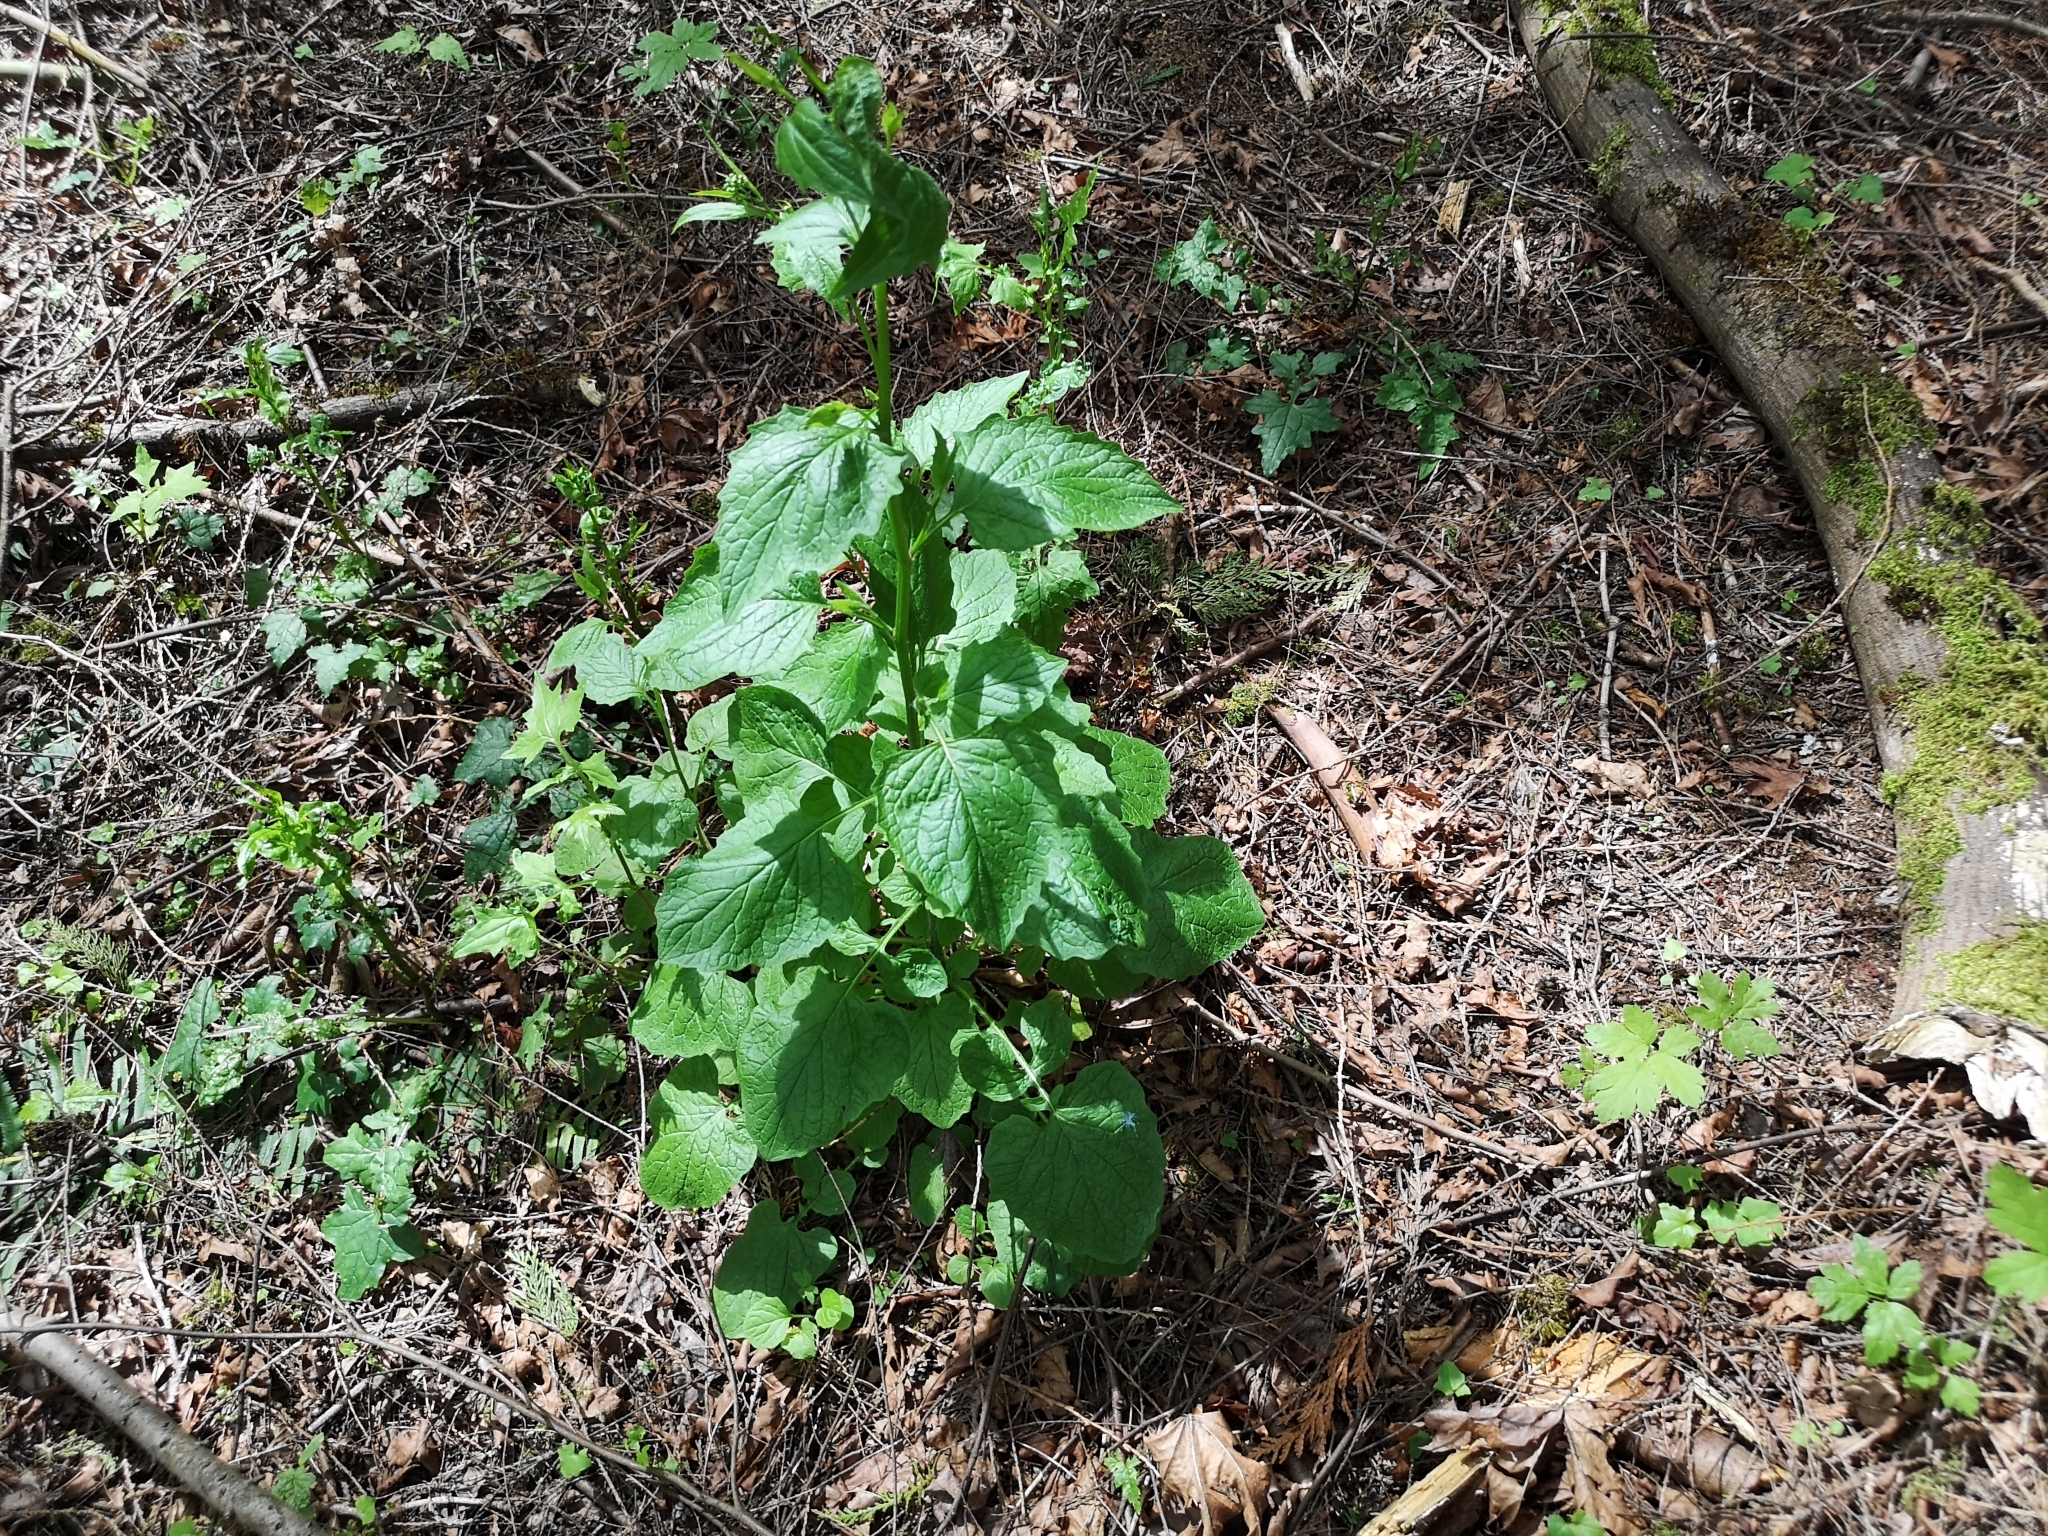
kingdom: Plantae
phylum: Tracheophyta
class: Magnoliopsida
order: Asterales
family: Asteraceae
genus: Lapsana
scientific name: Lapsana communis
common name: Nipplewort
